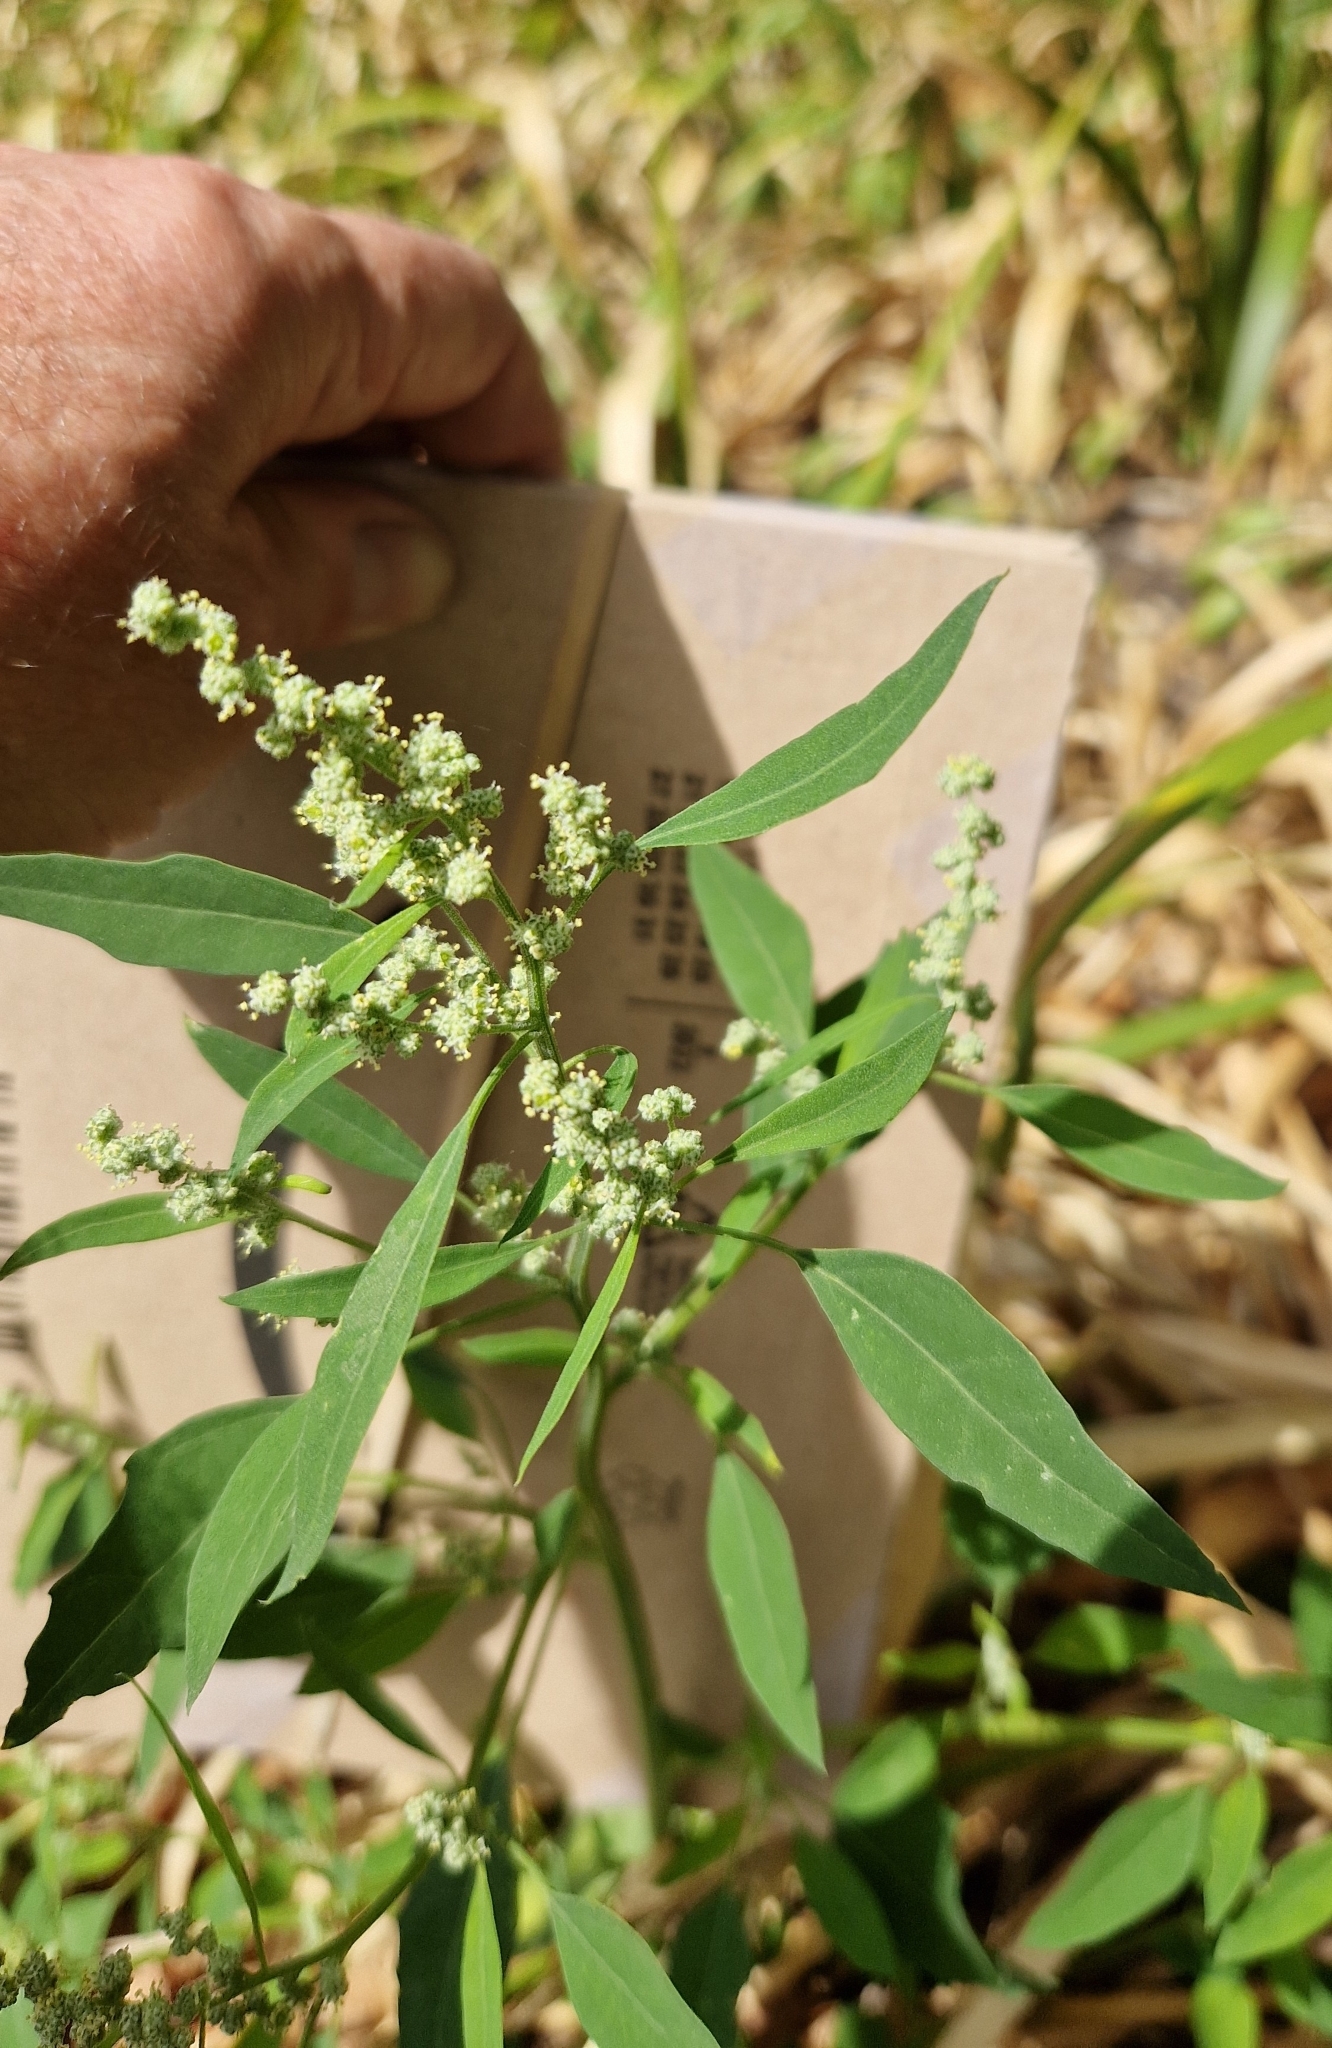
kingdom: Plantae
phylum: Tracheophyta
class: Magnoliopsida
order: Caryophyllales
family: Amaranthaceae
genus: Chenopodium
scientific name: Chenopodium album
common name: Fat-hen
